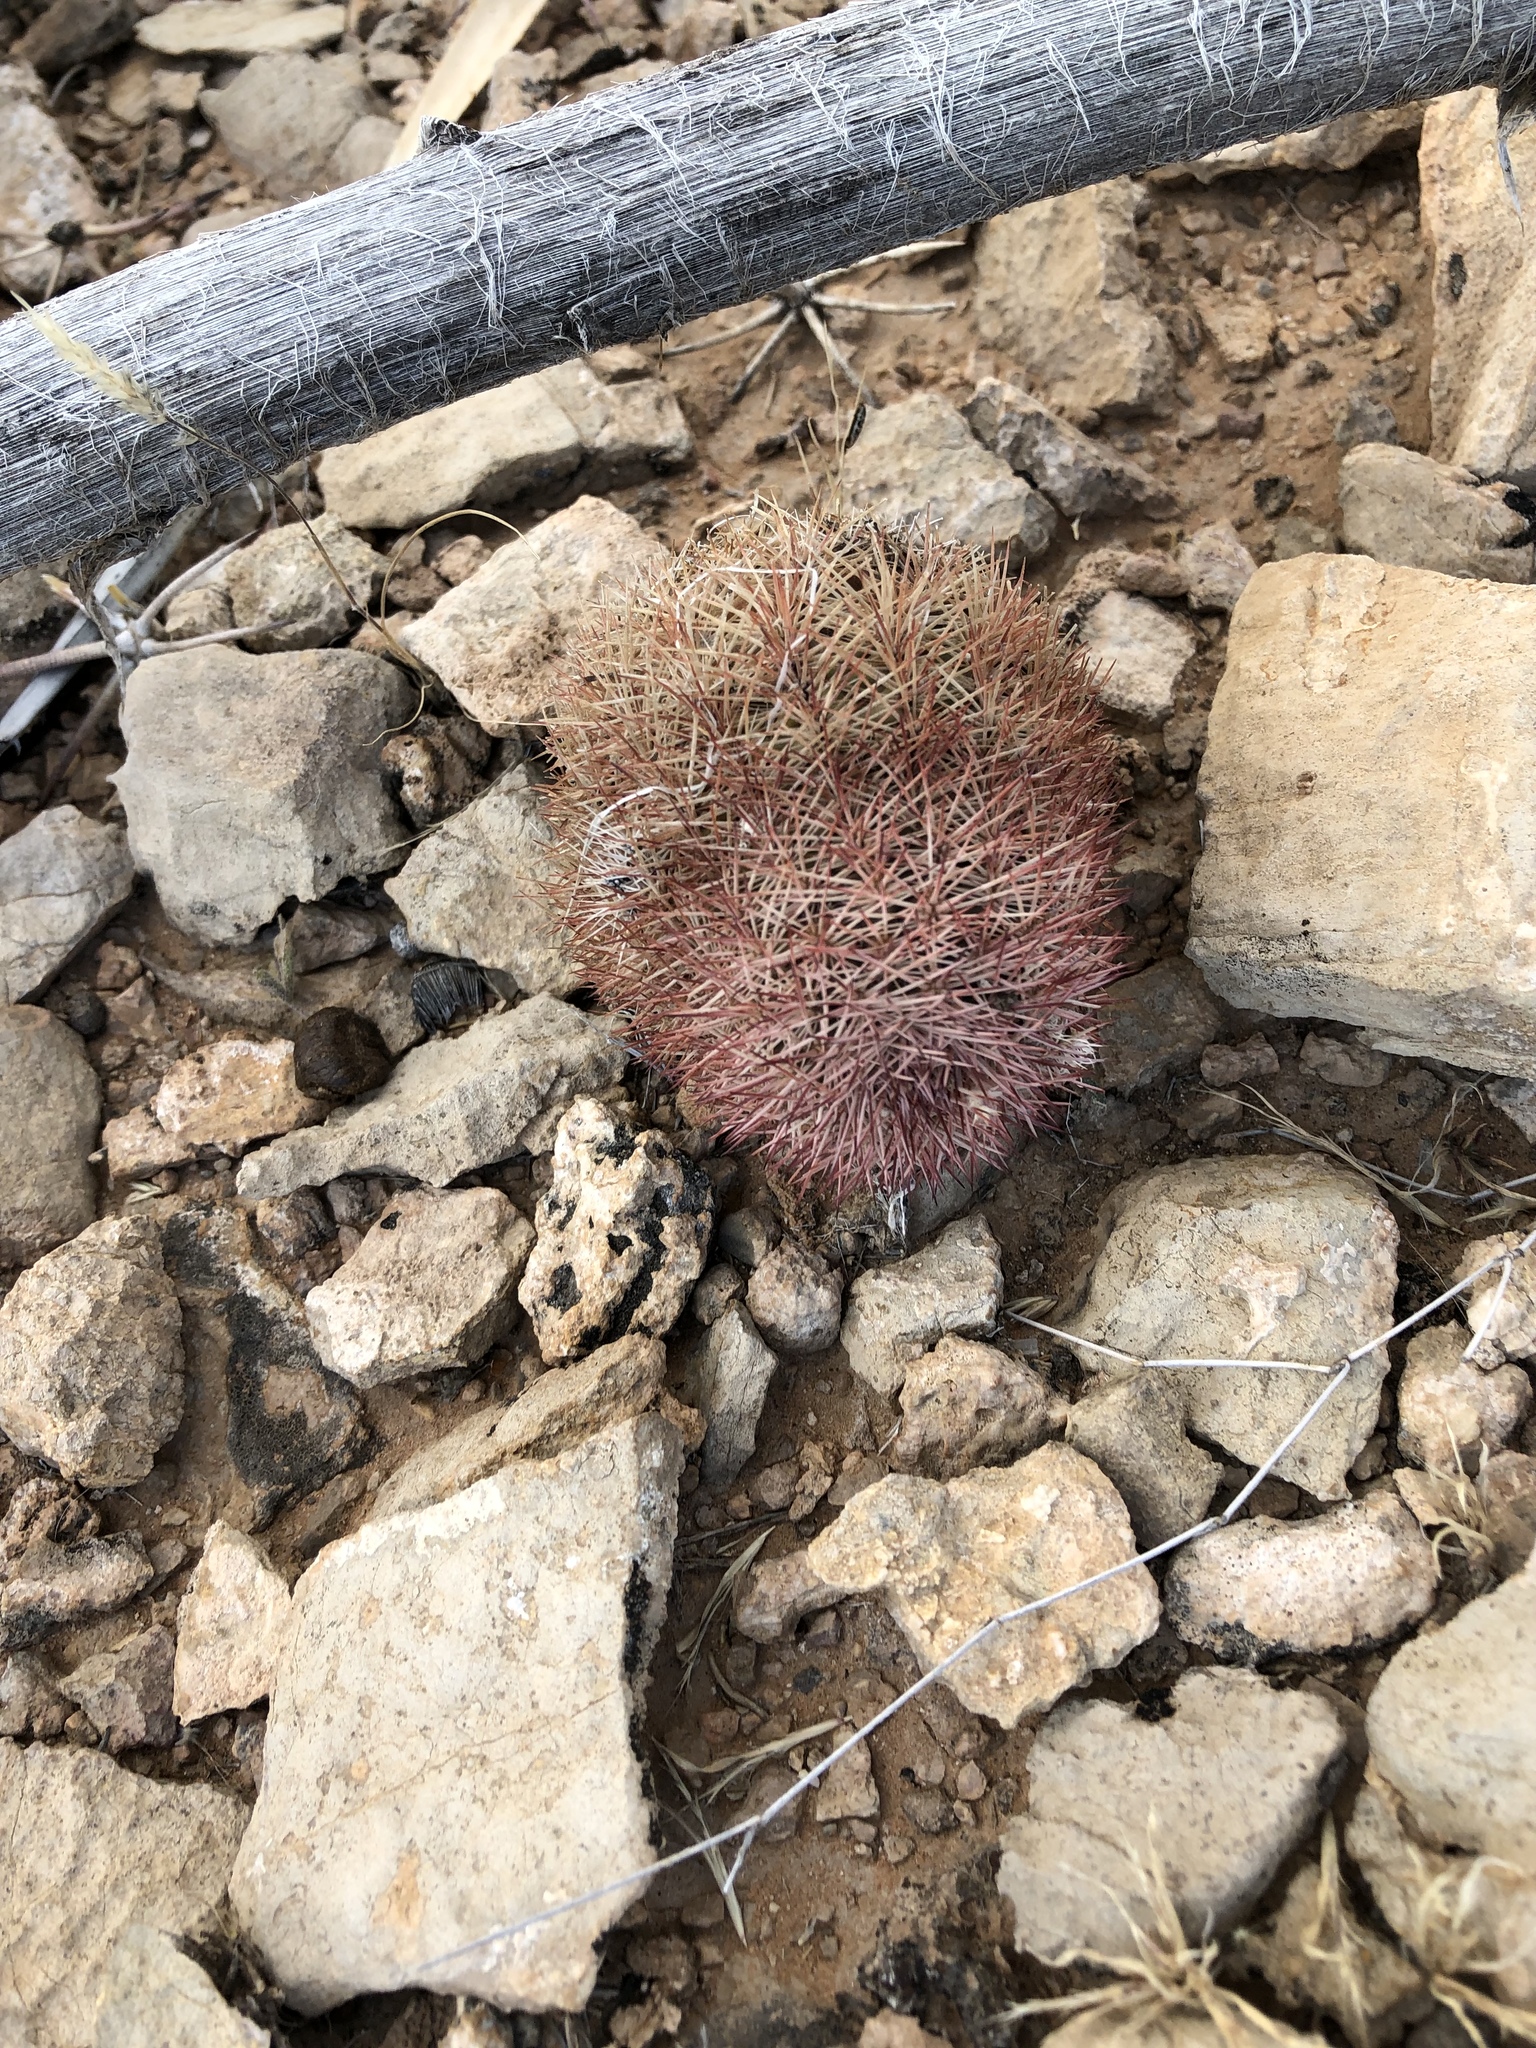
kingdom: Plantae
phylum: Tracheophyta
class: Magnoliopsida
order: Caryophyllales
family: Cactaceae
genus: Echinocereus
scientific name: Echinocereus dasyacanthus
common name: Spiny hedgehog cactus
